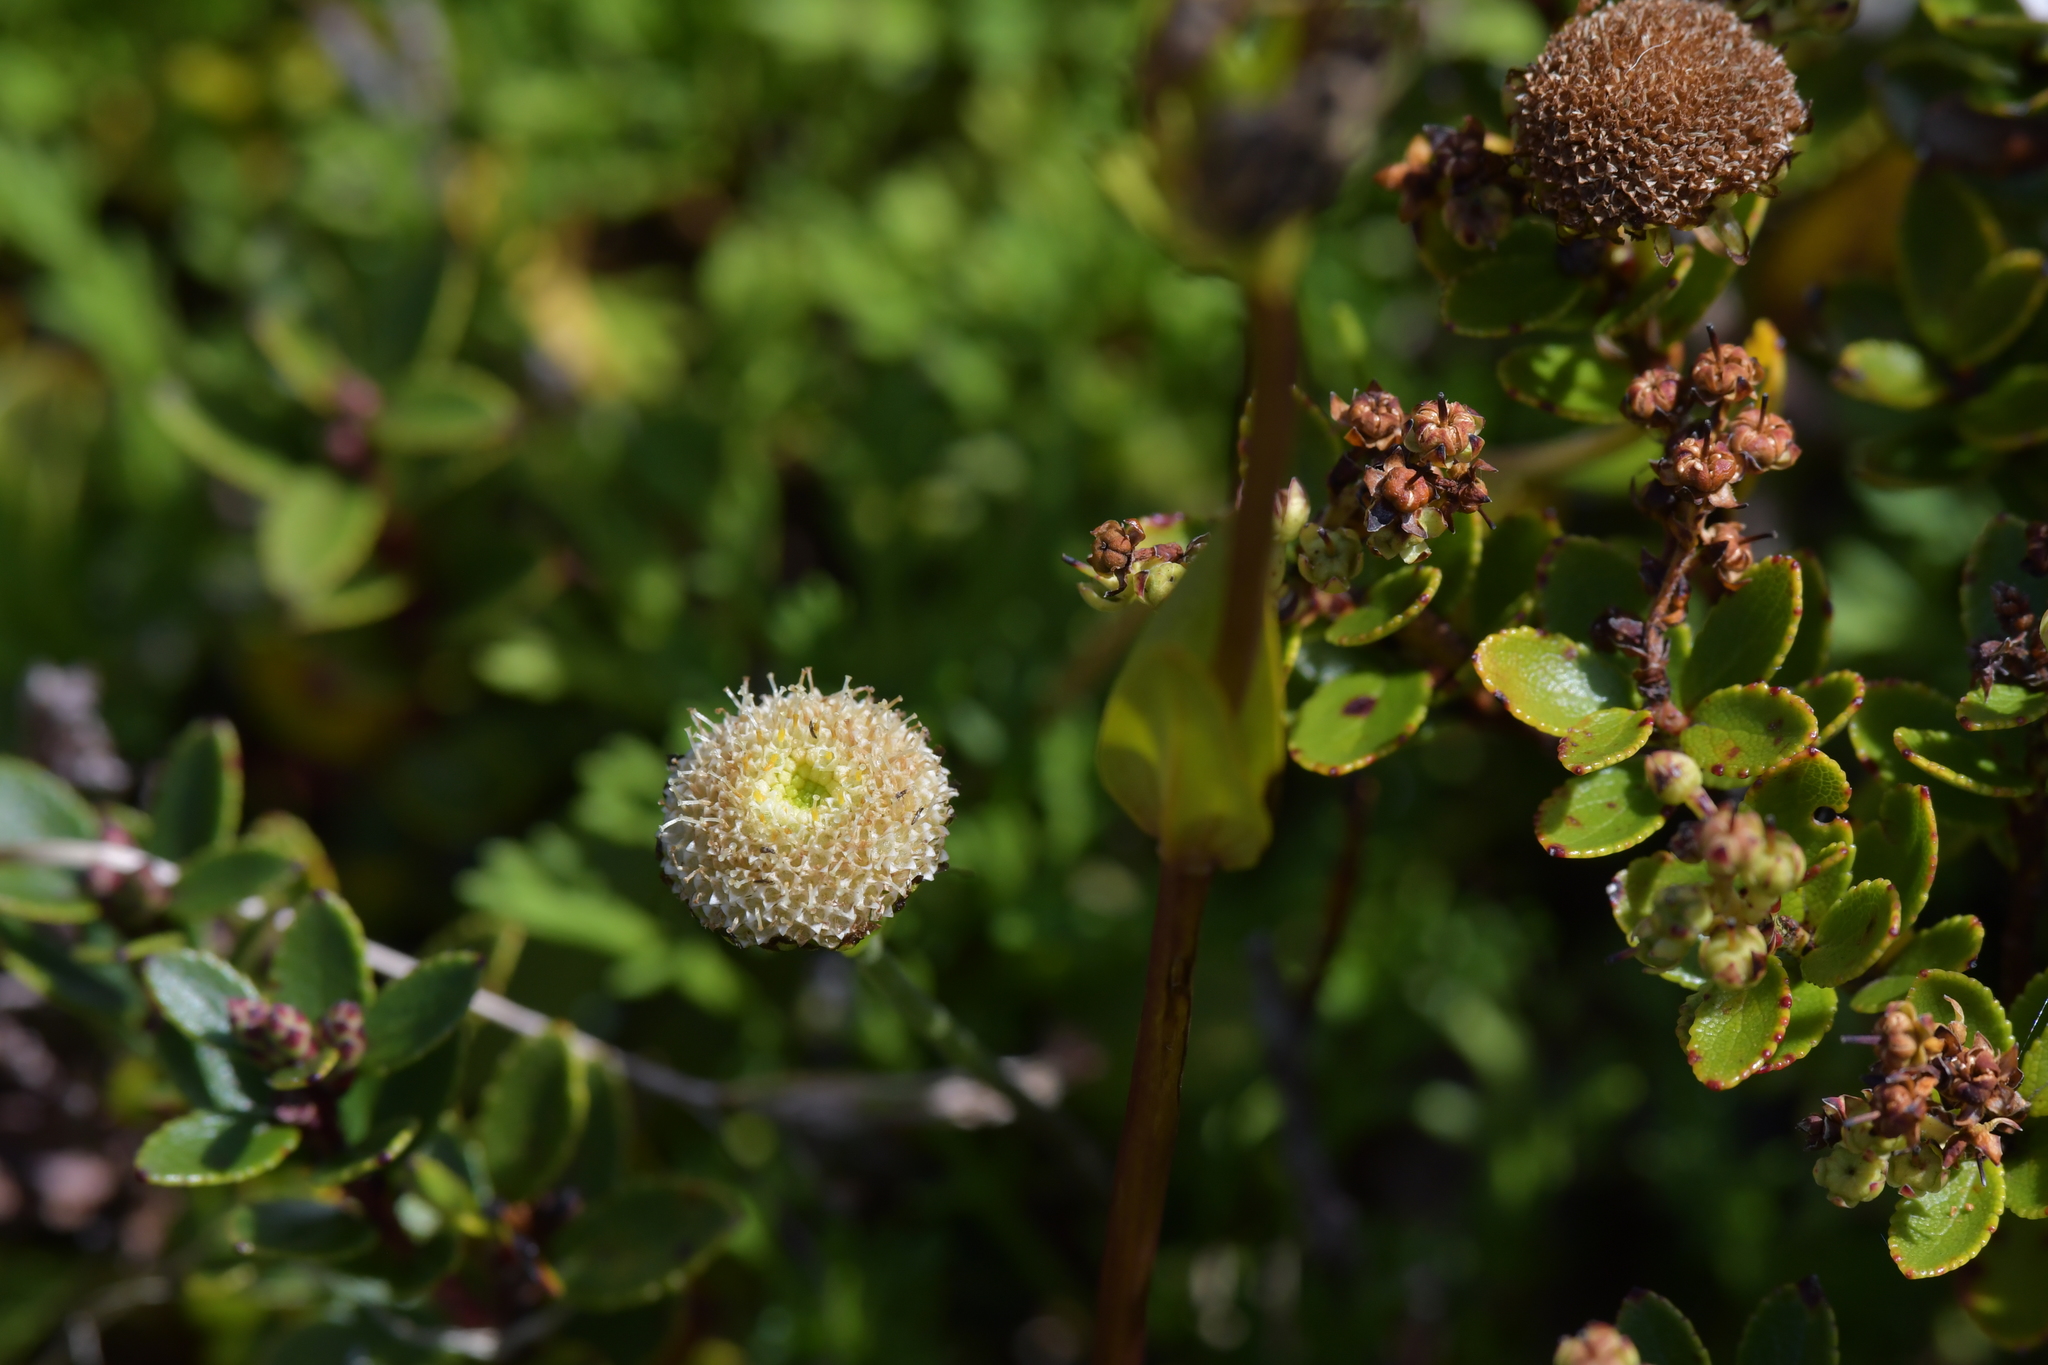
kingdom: Plantae
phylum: Tracheophyta
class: Magnoliopsida
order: Asterales
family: Asteraceae
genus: Leptinella
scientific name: Leptinella pyrethrifolia
